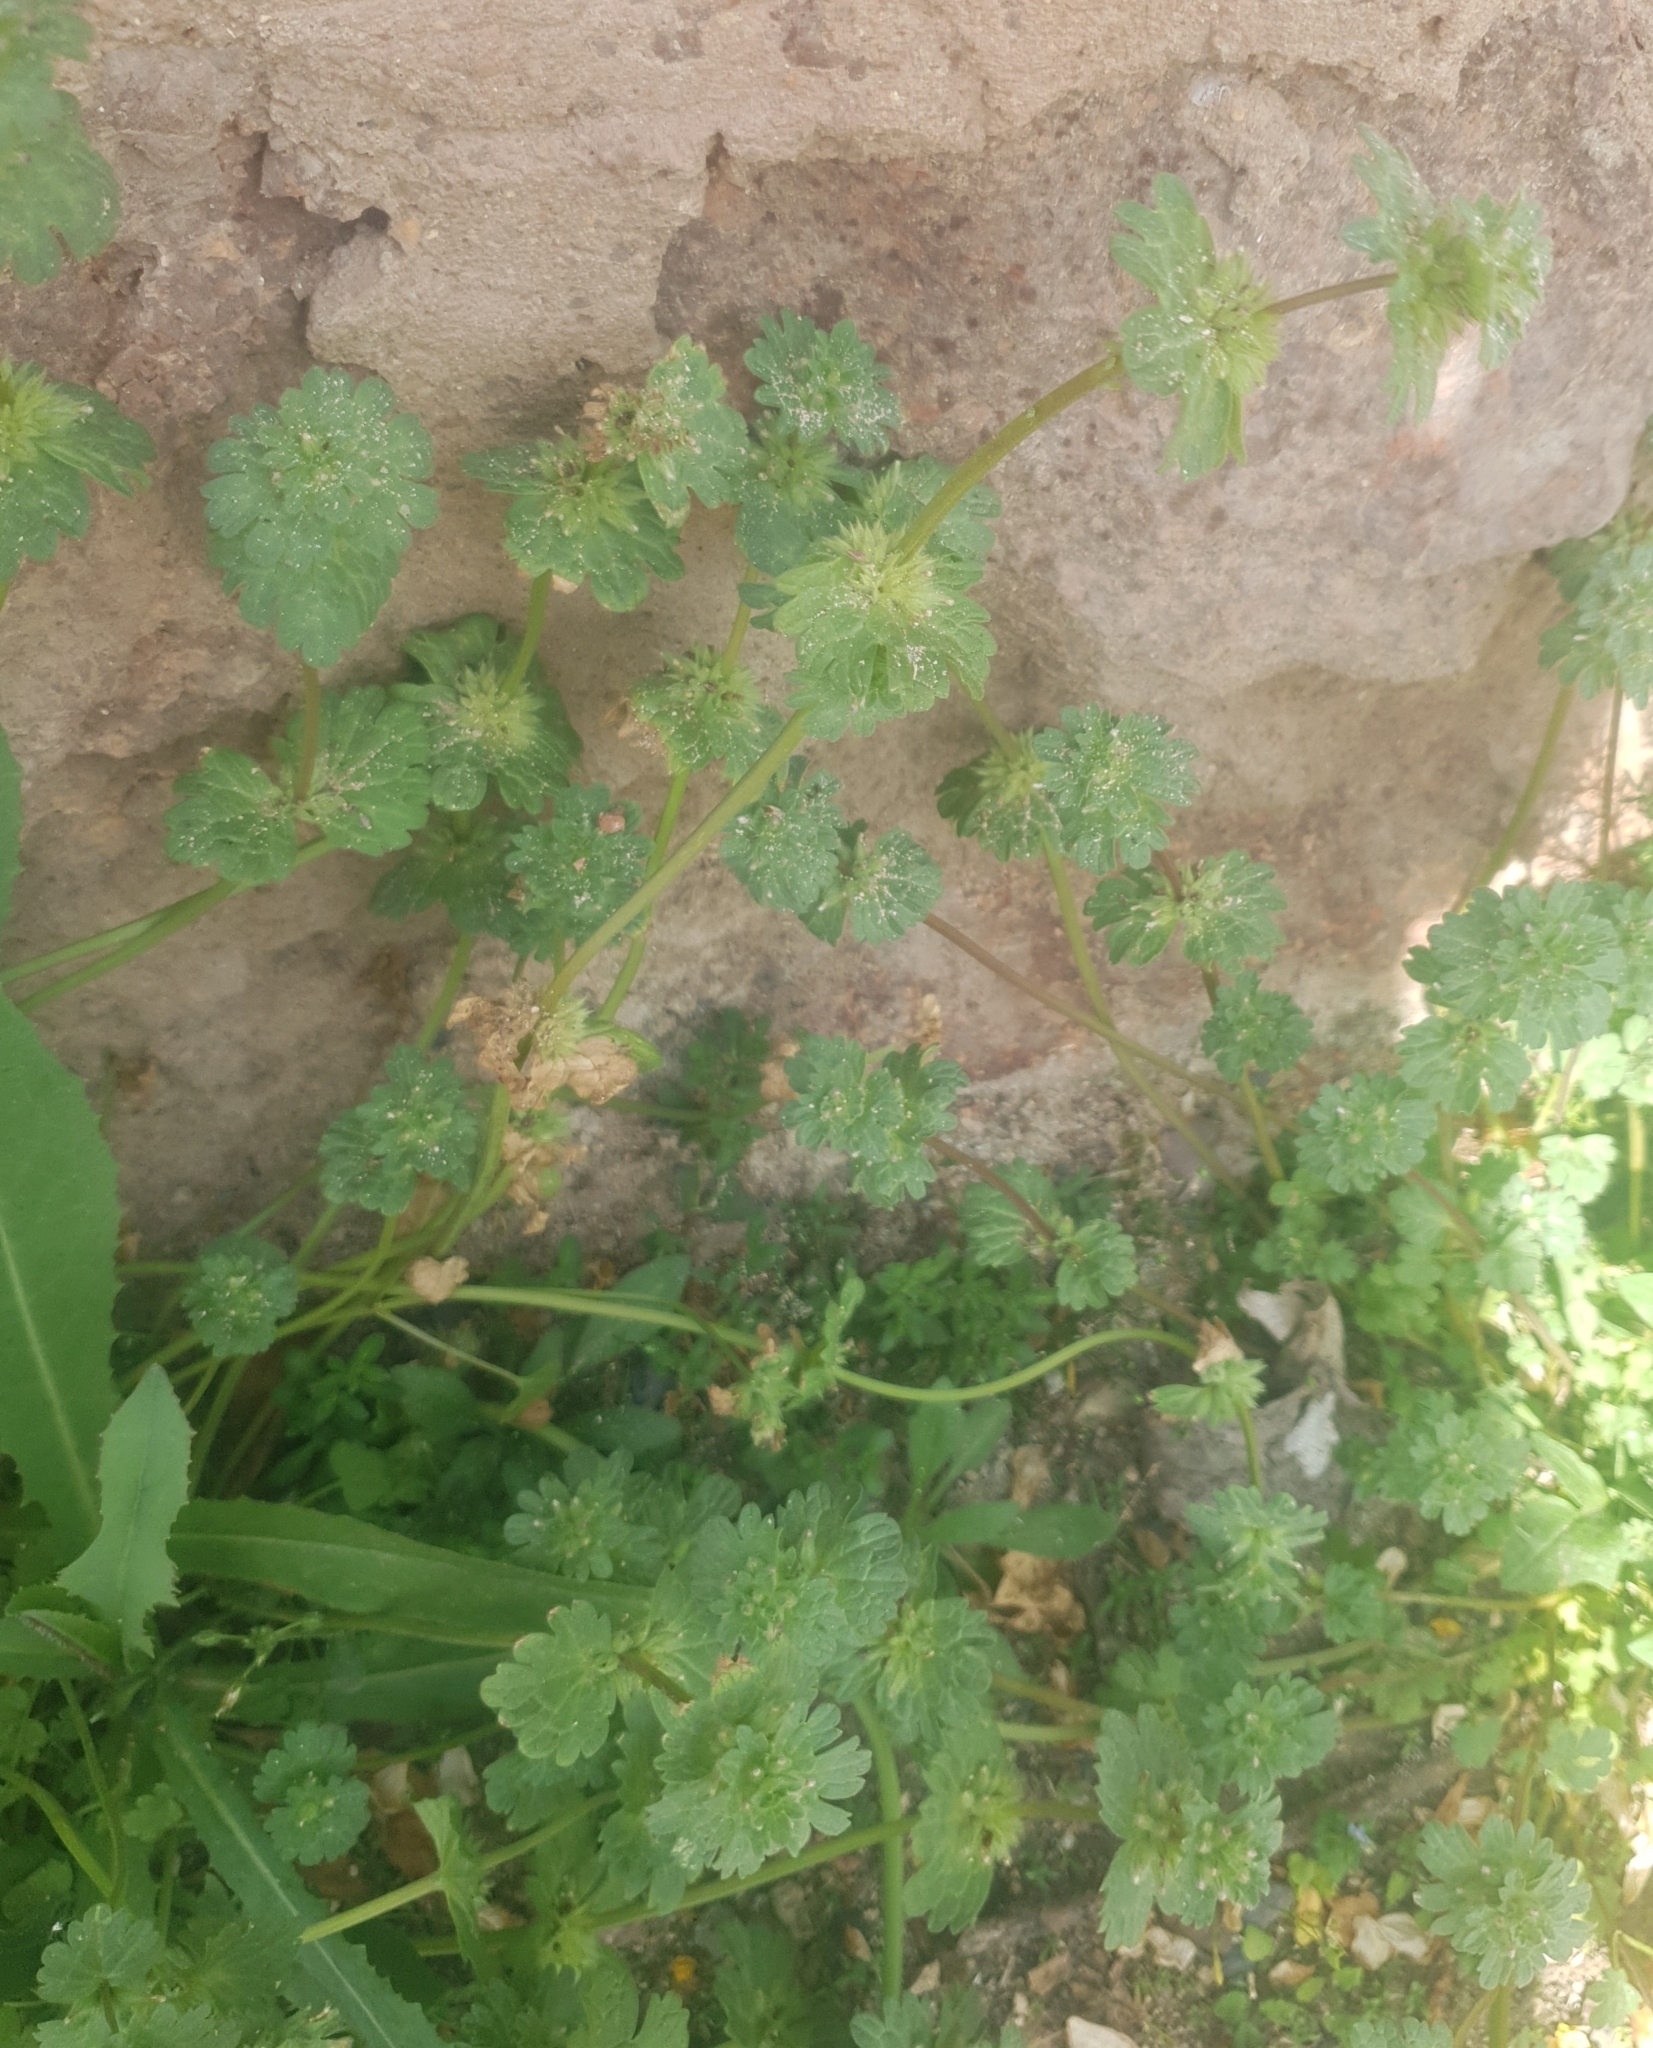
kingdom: Plantae
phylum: Tracheophyta
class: Magnoliopsida
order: Lamiales
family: Lamiaceae
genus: Lamium
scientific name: Lamium amplexicaule
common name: Henbit dead-nettle
